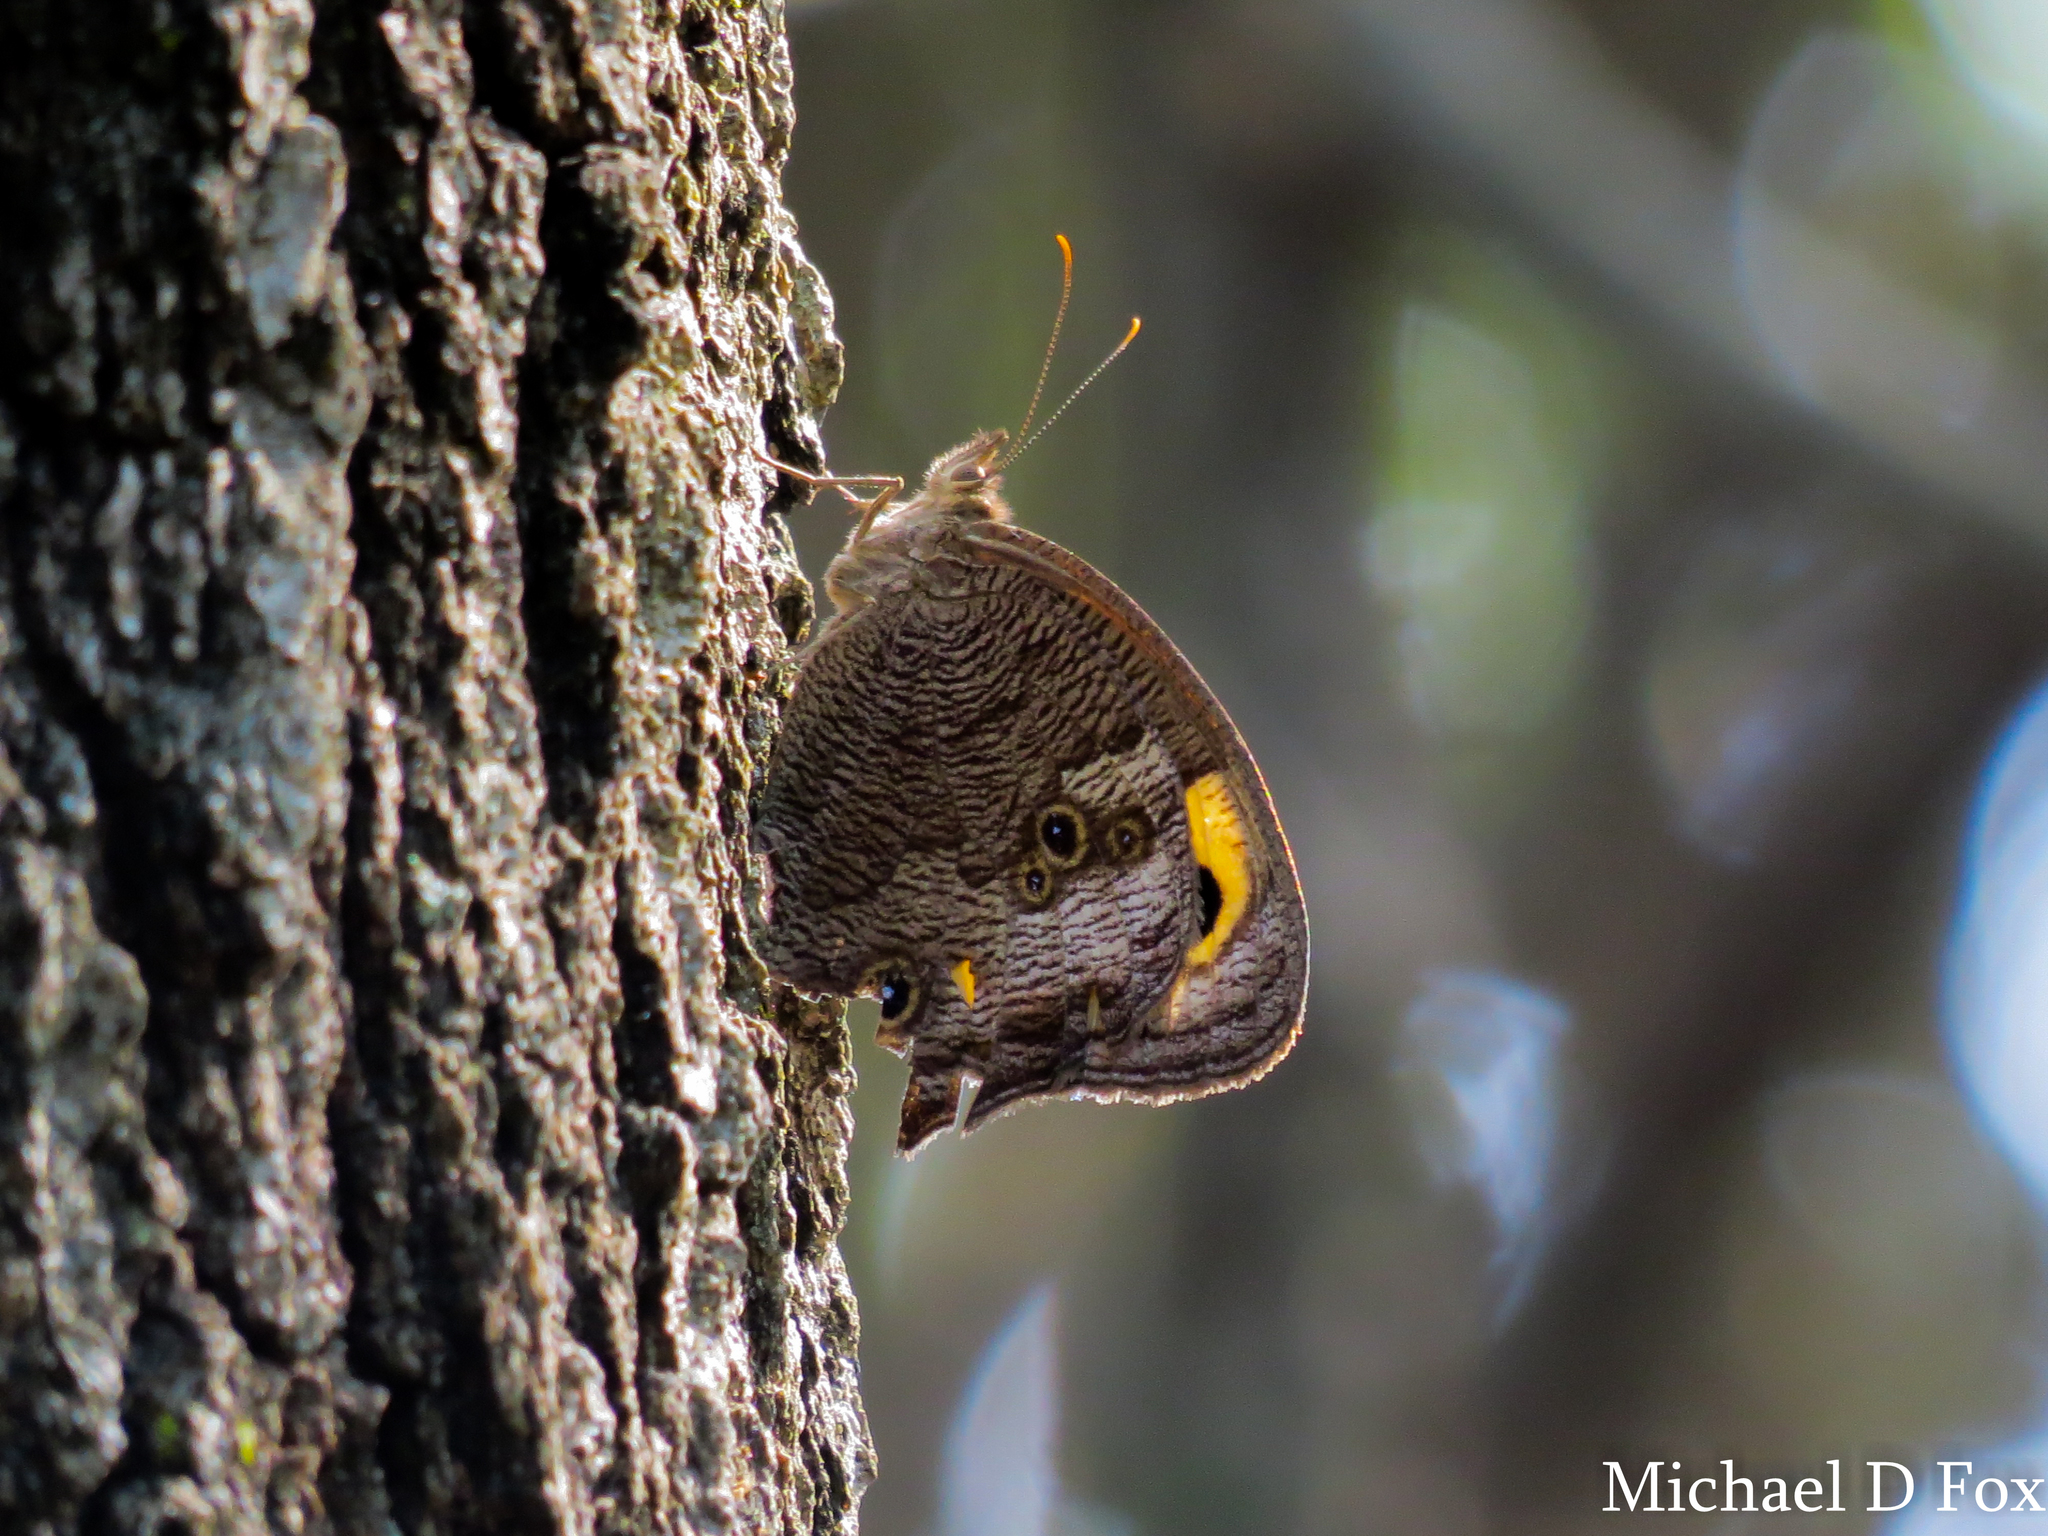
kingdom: Animalia
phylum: Arthropoda
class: Insecta
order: Lepidoptera
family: Nymphalidae
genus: Cercyonis
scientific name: Cercyonis pegala
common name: Common wood-nymph
